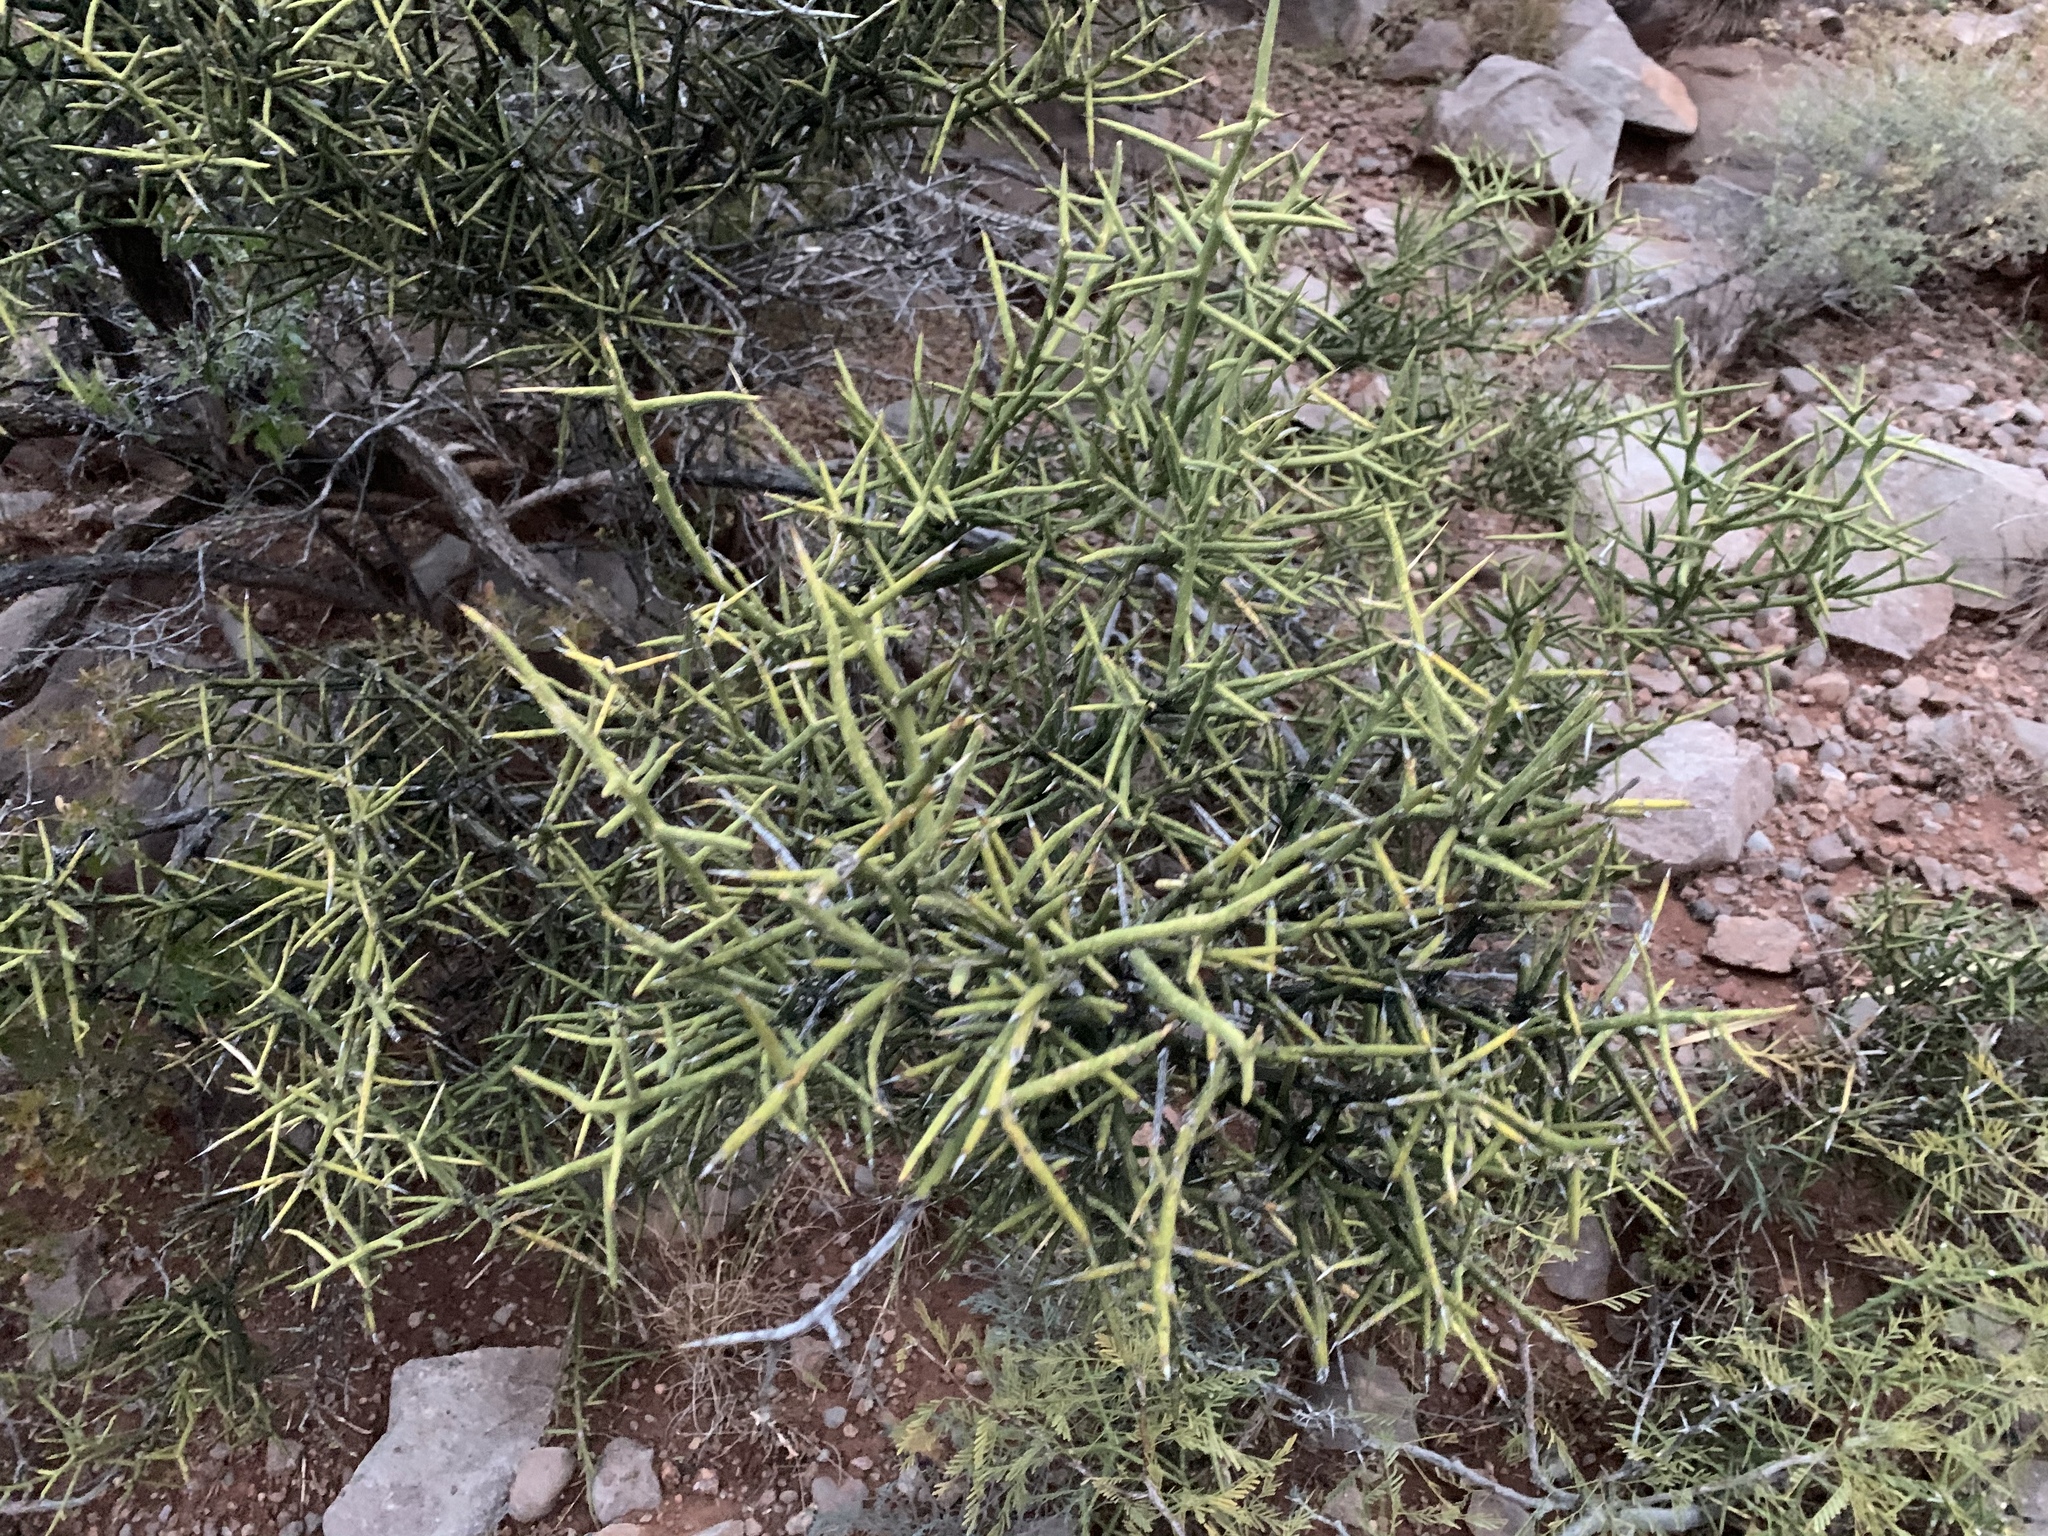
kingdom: Plantae
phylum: Tracheophyta
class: Magnoliopsida
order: Brassicales
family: Koeberliniaceae
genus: Koeberlinia
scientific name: Koeberlinia spinosa
